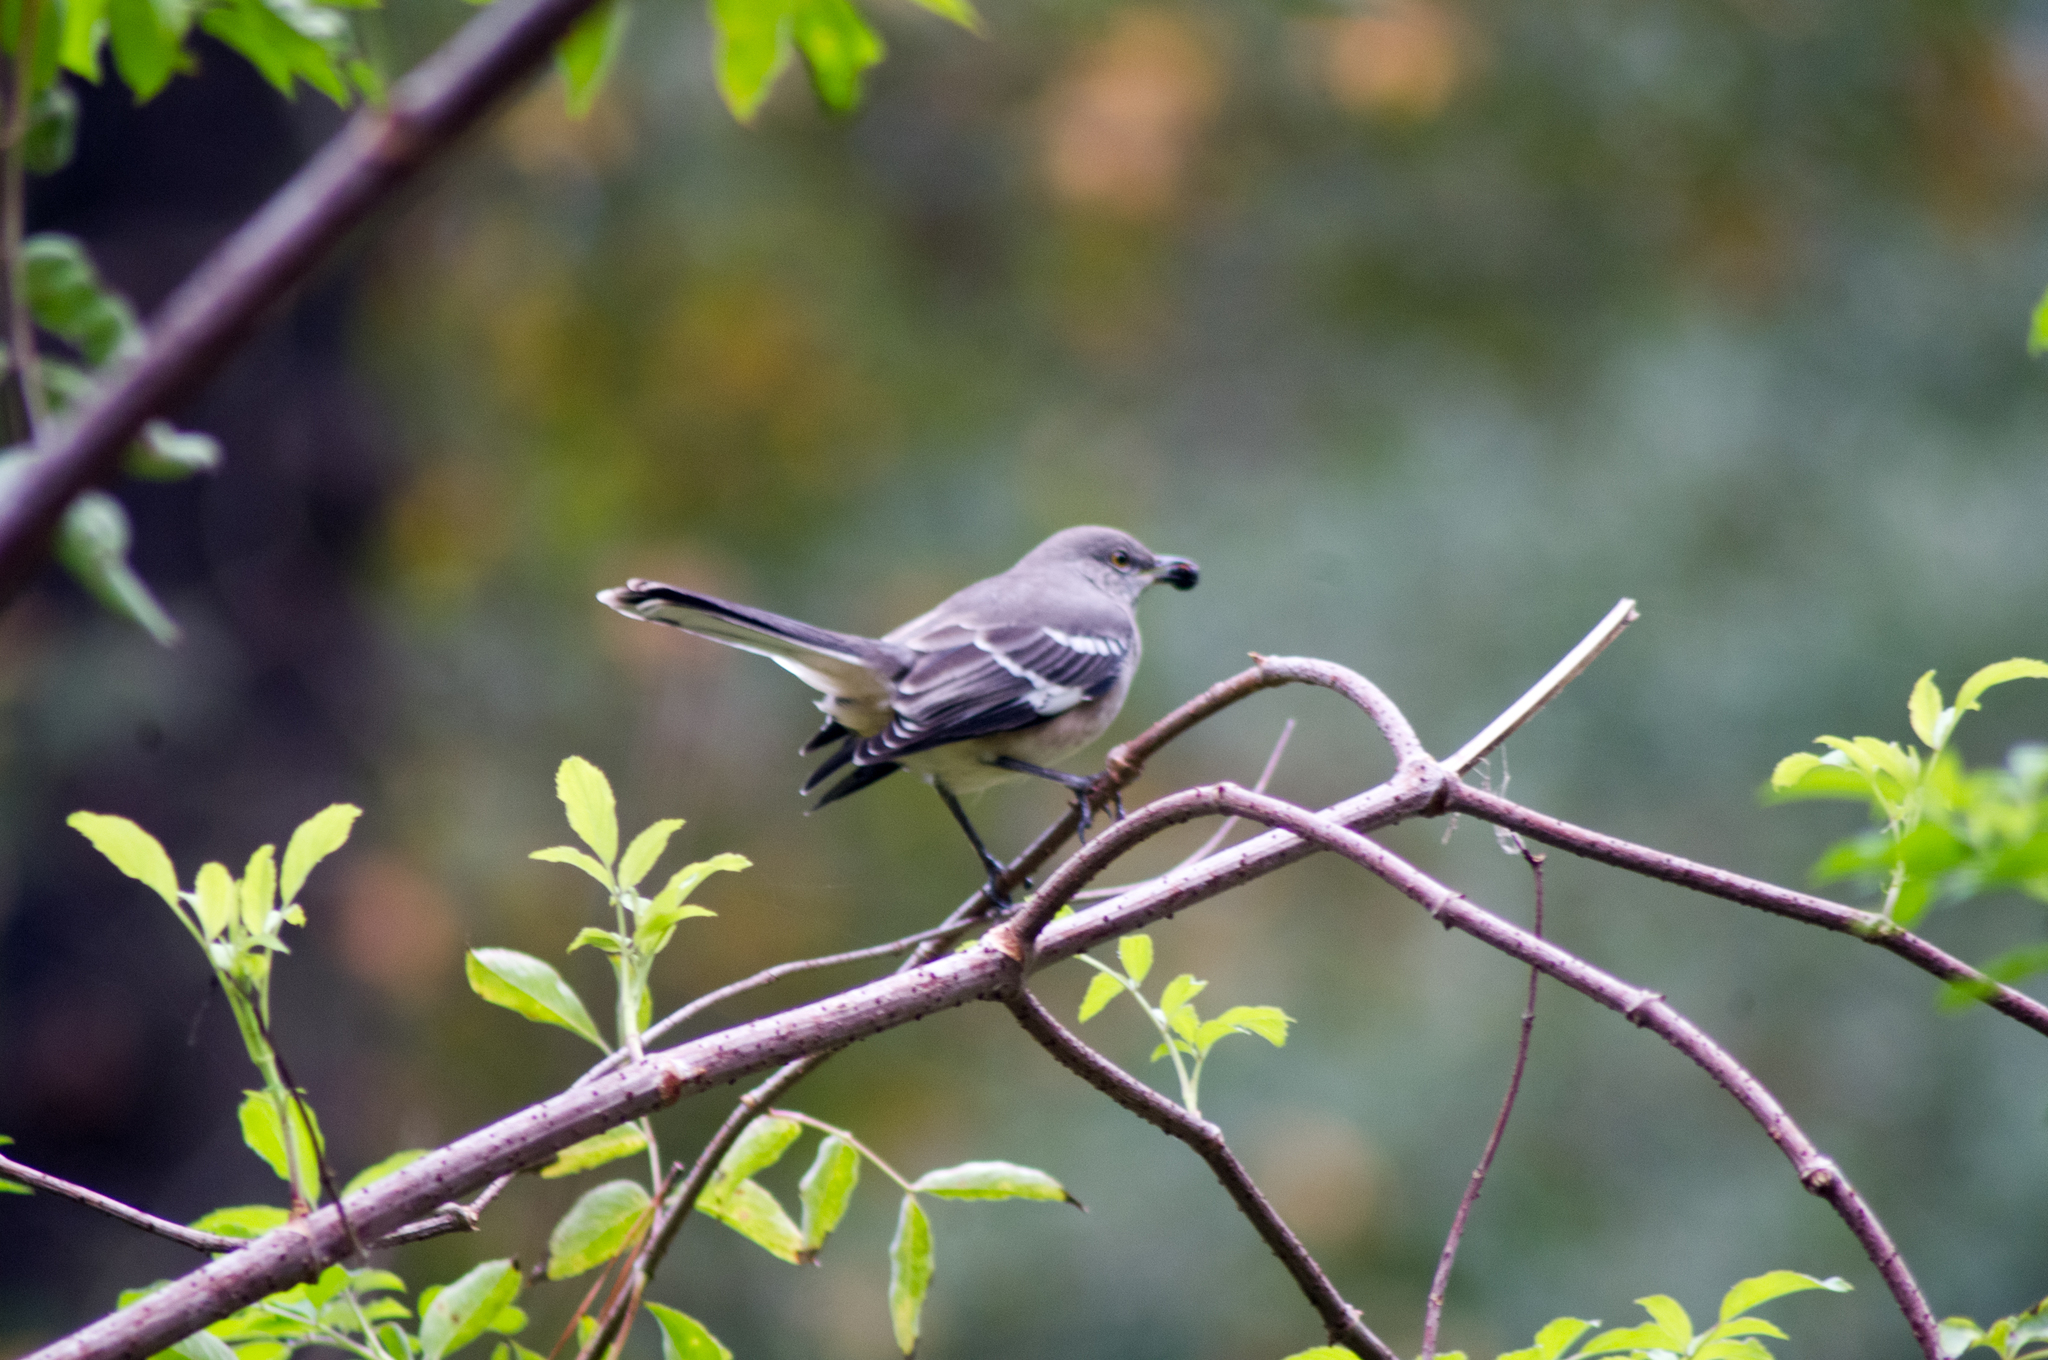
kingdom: Animalia
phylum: Chordata
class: Aves
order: Passeriformes
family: Mimidae
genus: Mimus
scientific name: Mimus polyglottos
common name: Northern mockingbird
